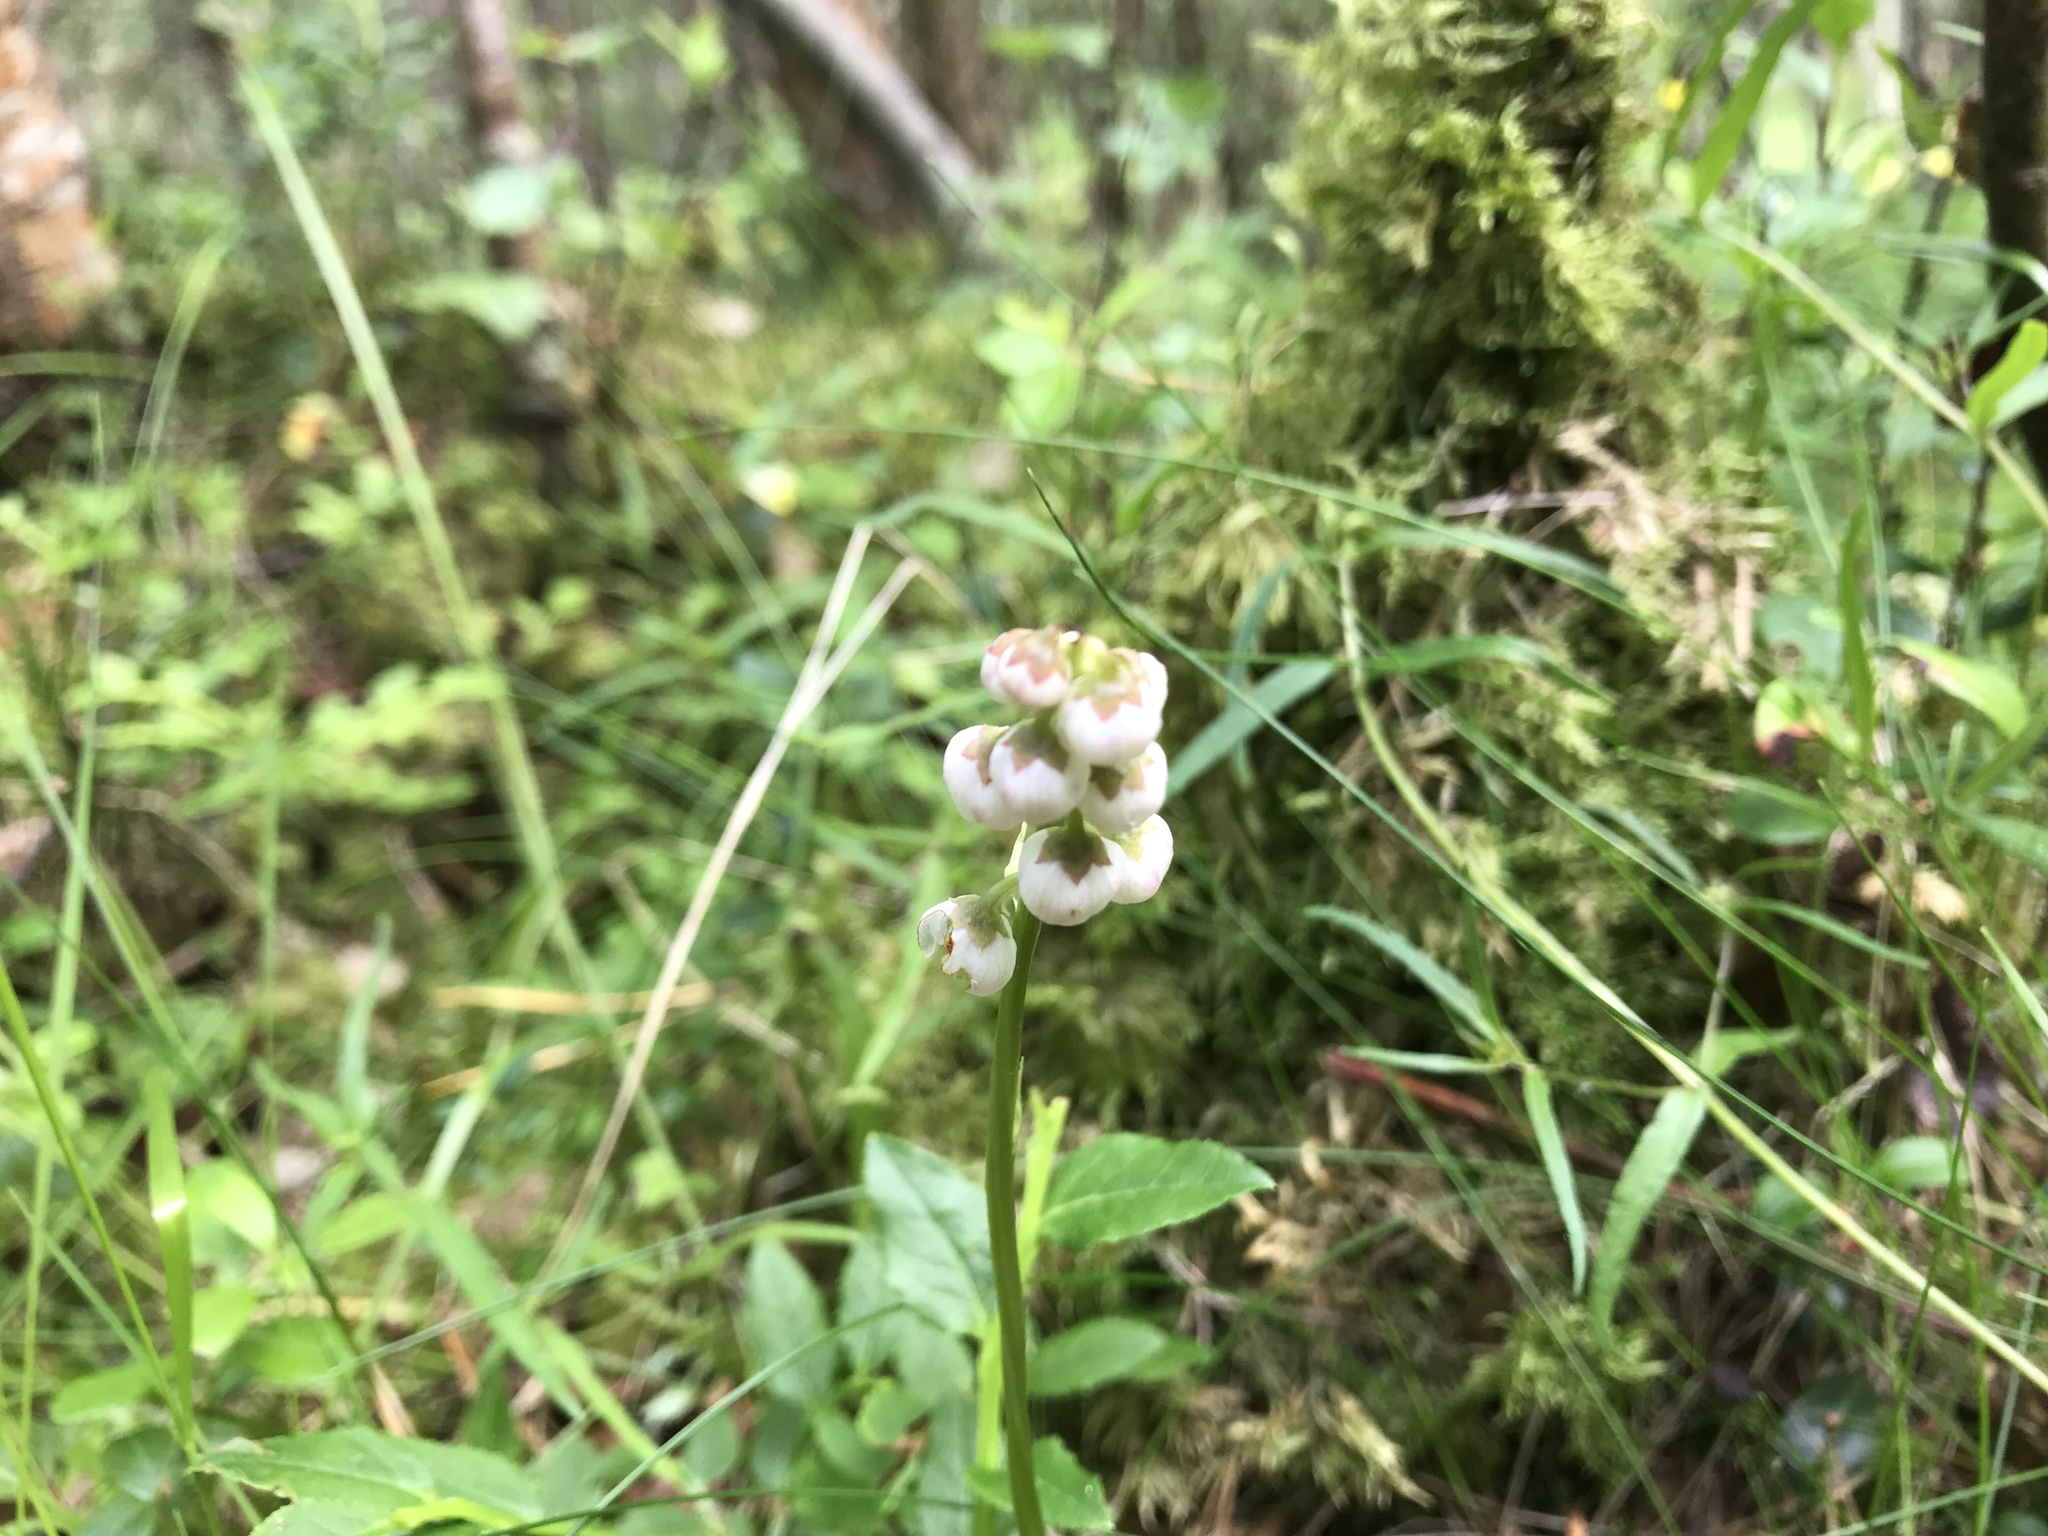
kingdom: Plantae
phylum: Tracheophyta
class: Magnoliopsida
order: Ericales
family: Ericaceae
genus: Pyrola
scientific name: Pyrola minor
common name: Common wintergreen
